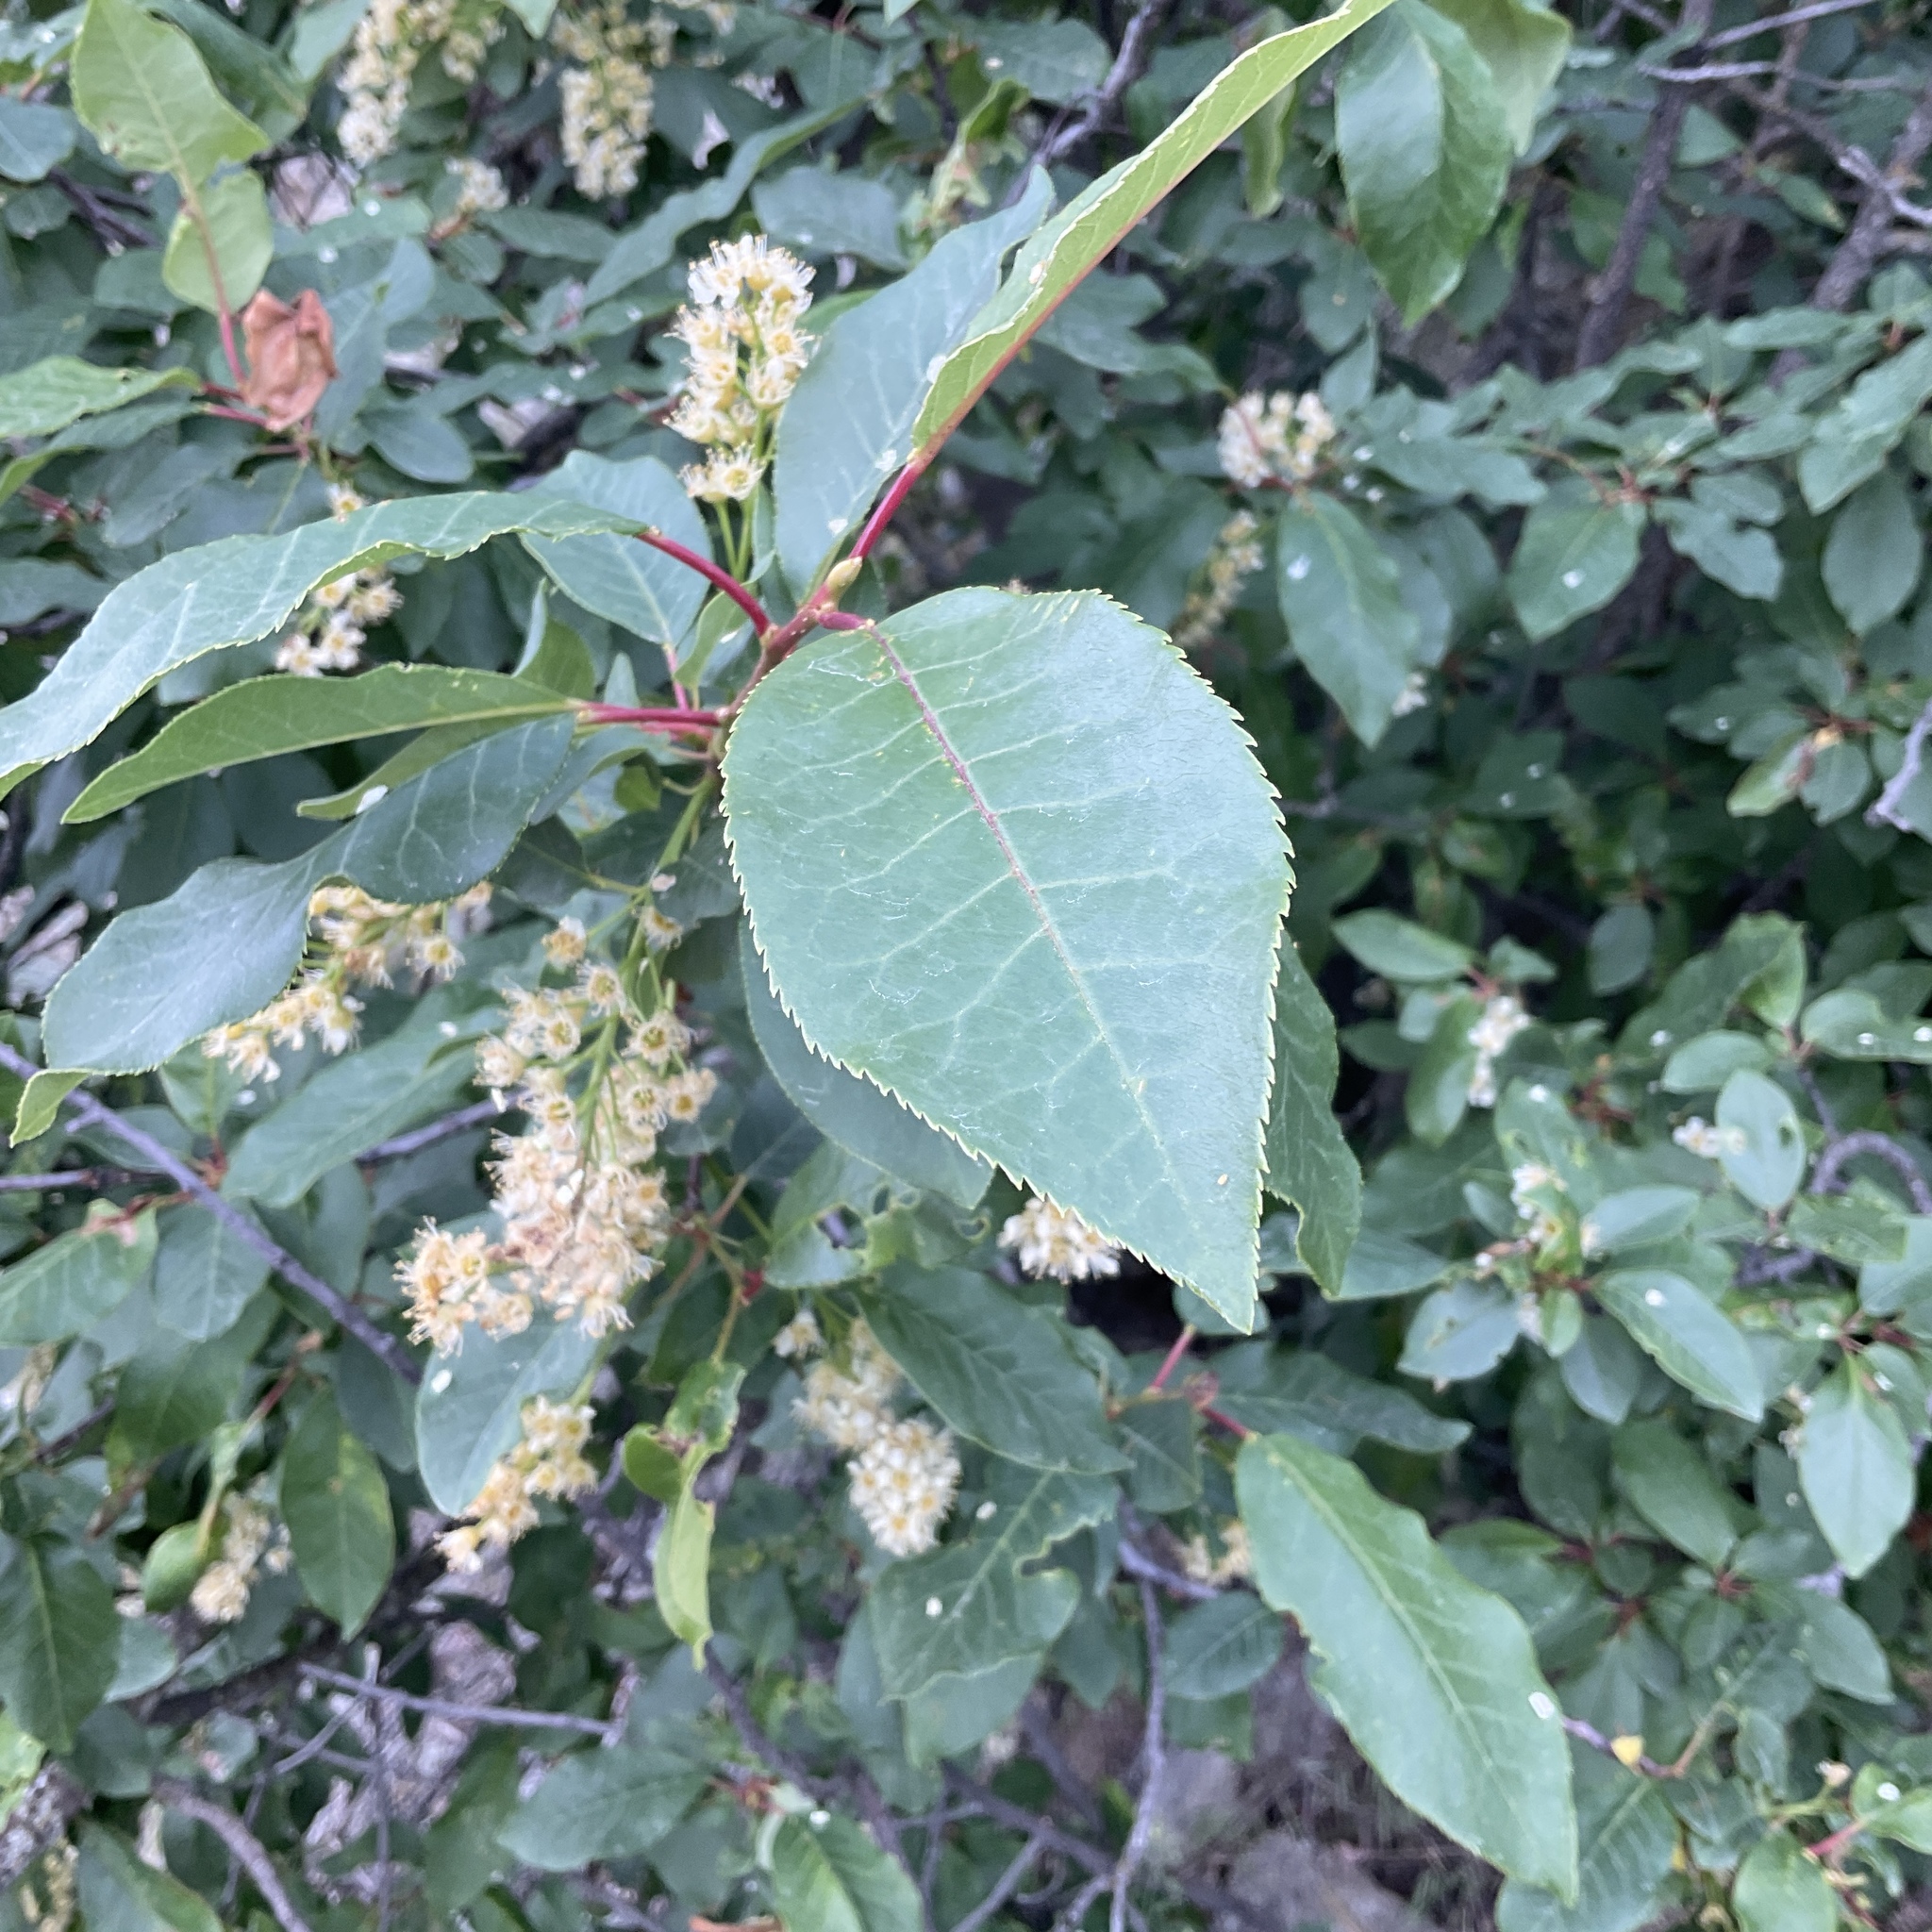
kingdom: Plantae
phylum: Tracheophyta
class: Magnoliopsida
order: Rosales
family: Rosaceae
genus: Prunus
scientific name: Prunus virginiana
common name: Chokecherry
